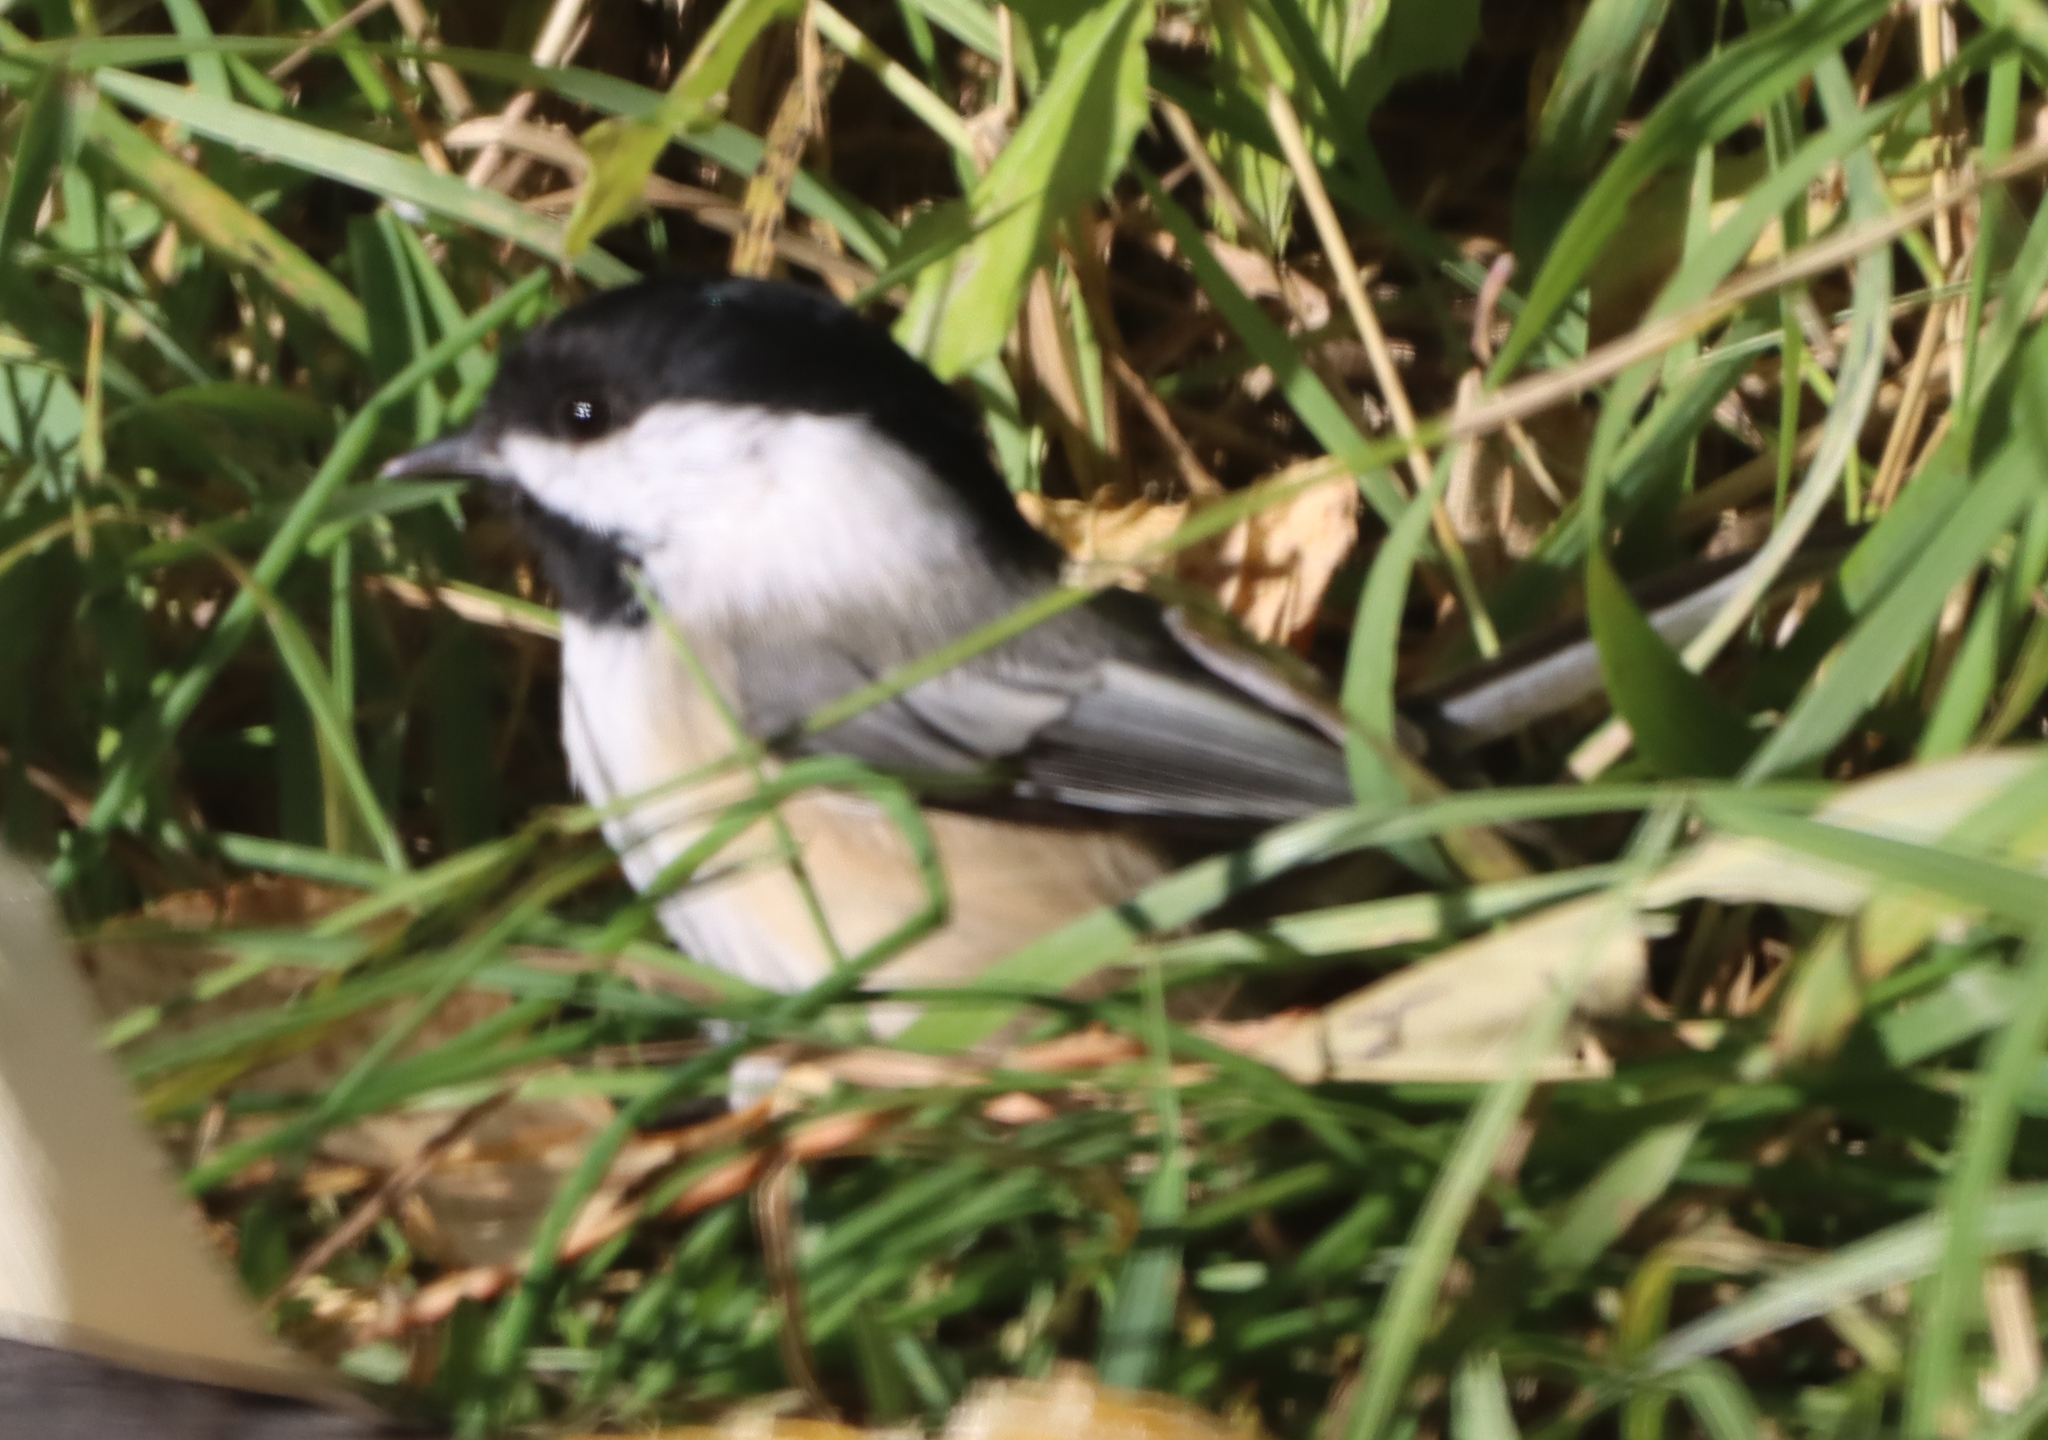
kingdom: Animalia
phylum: Chordata
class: Aves
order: Passeriformes
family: Paridae
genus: Poecile
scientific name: Poecile atricapillus
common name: Black-capped chickadee
